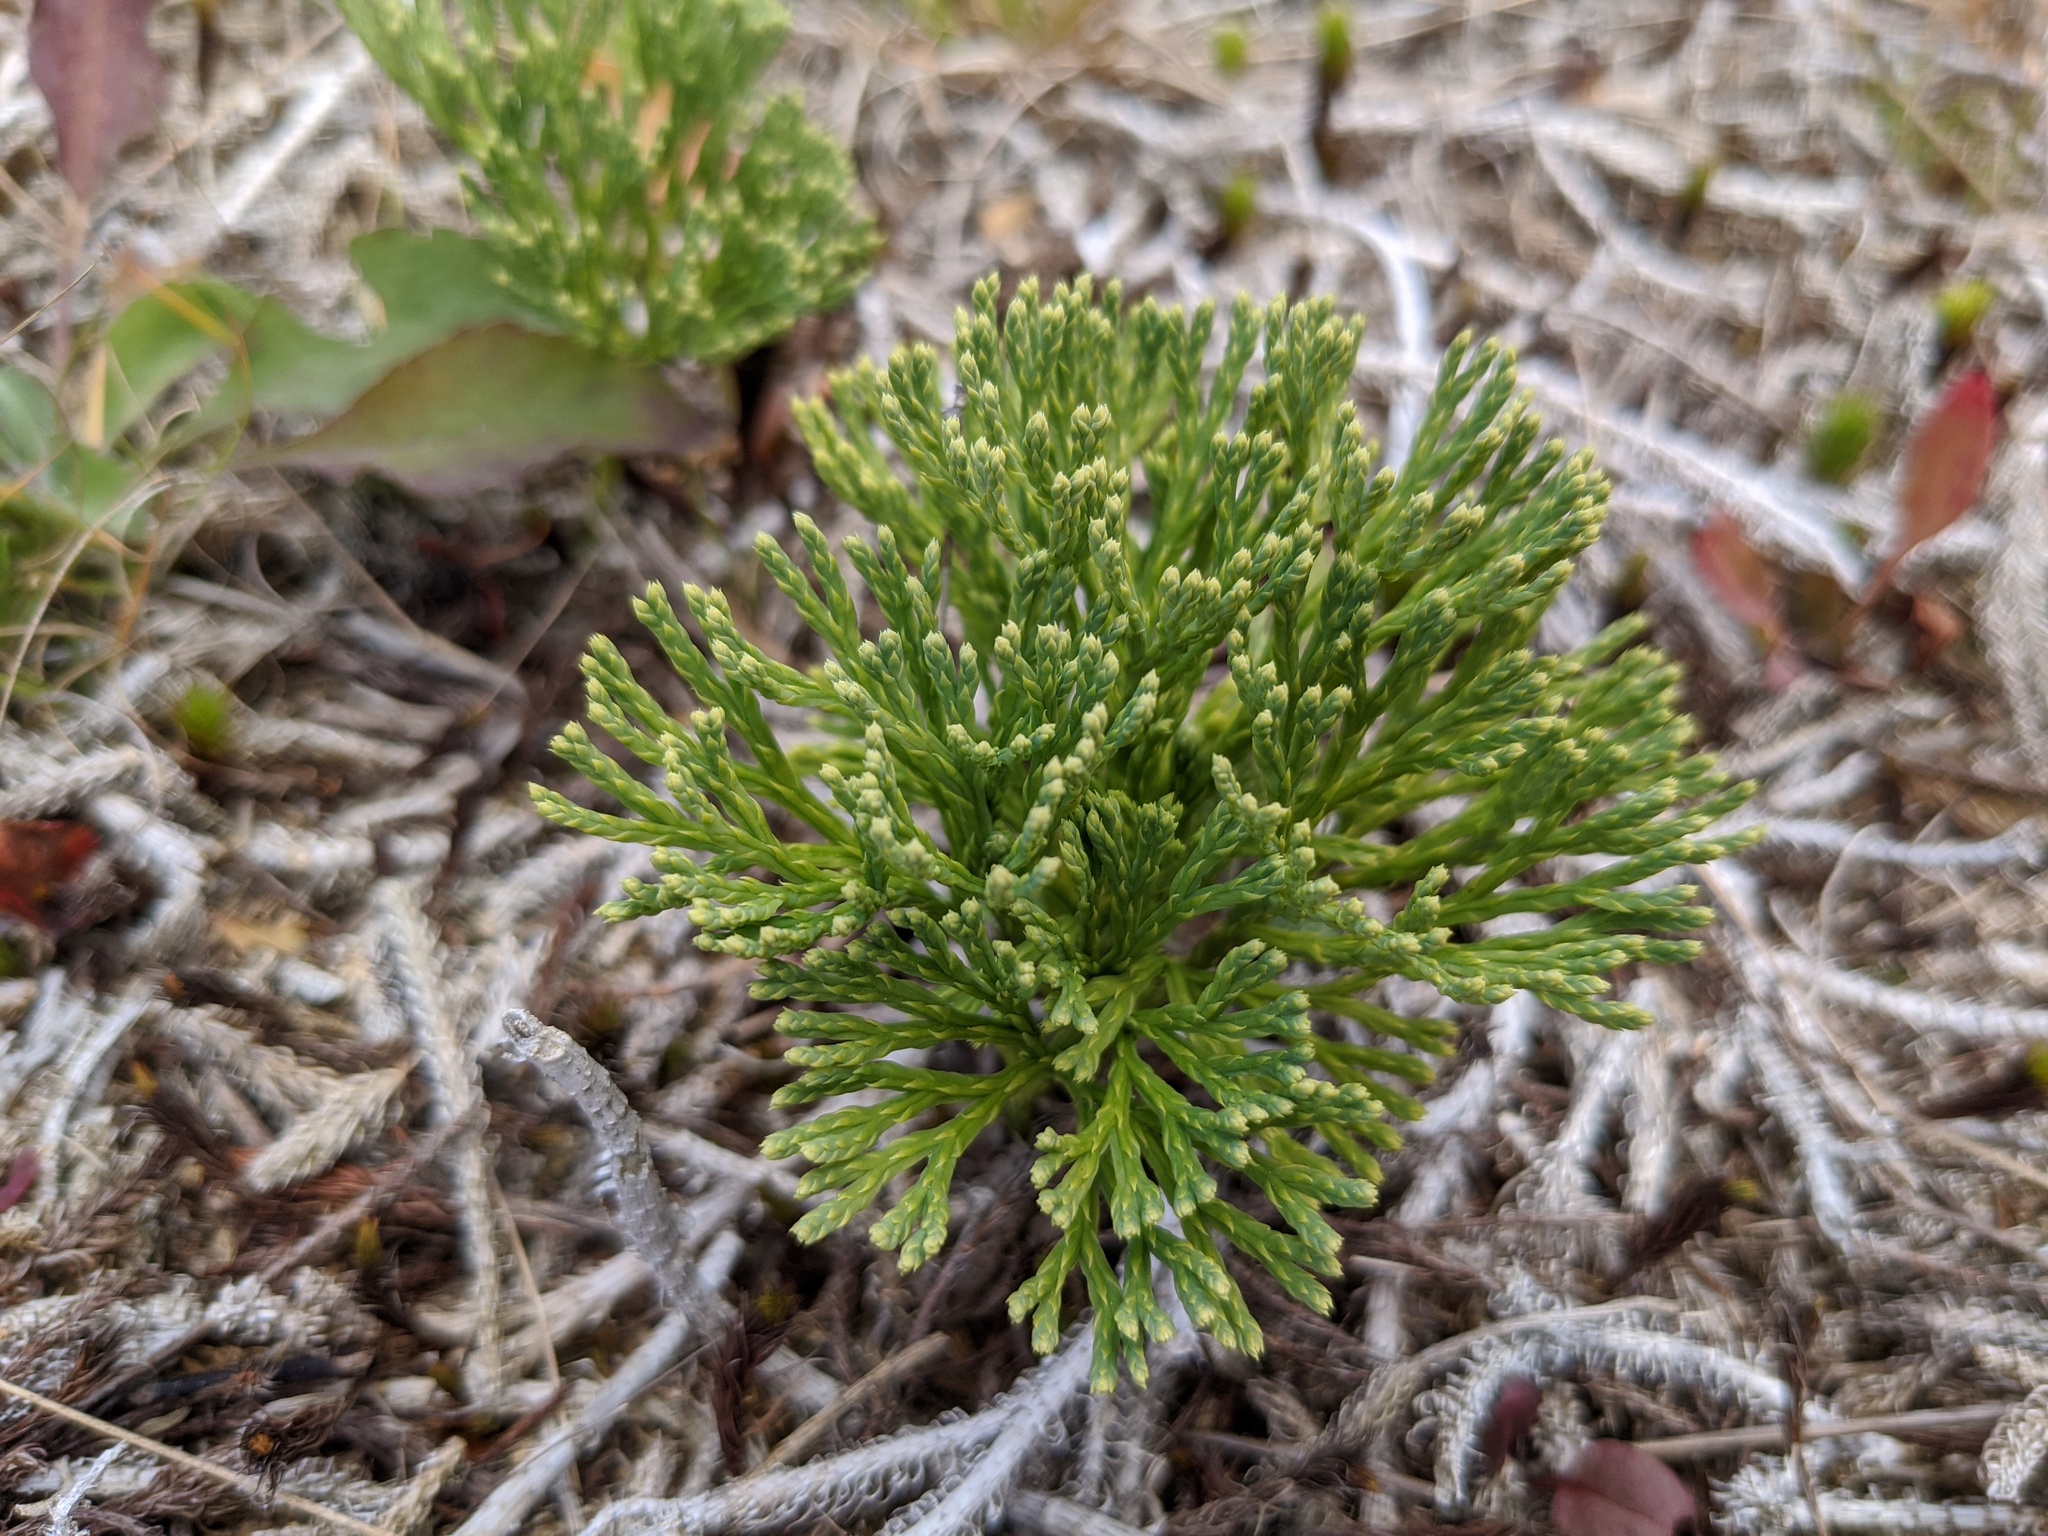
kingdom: Plantae
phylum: Tracheophyta
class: Lycopodiopsida
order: Lycopodiales
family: Lycopodiaceae
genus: Diphasiastrum
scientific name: Diphasiastrum tristachyum
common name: Blue ground-cedar
